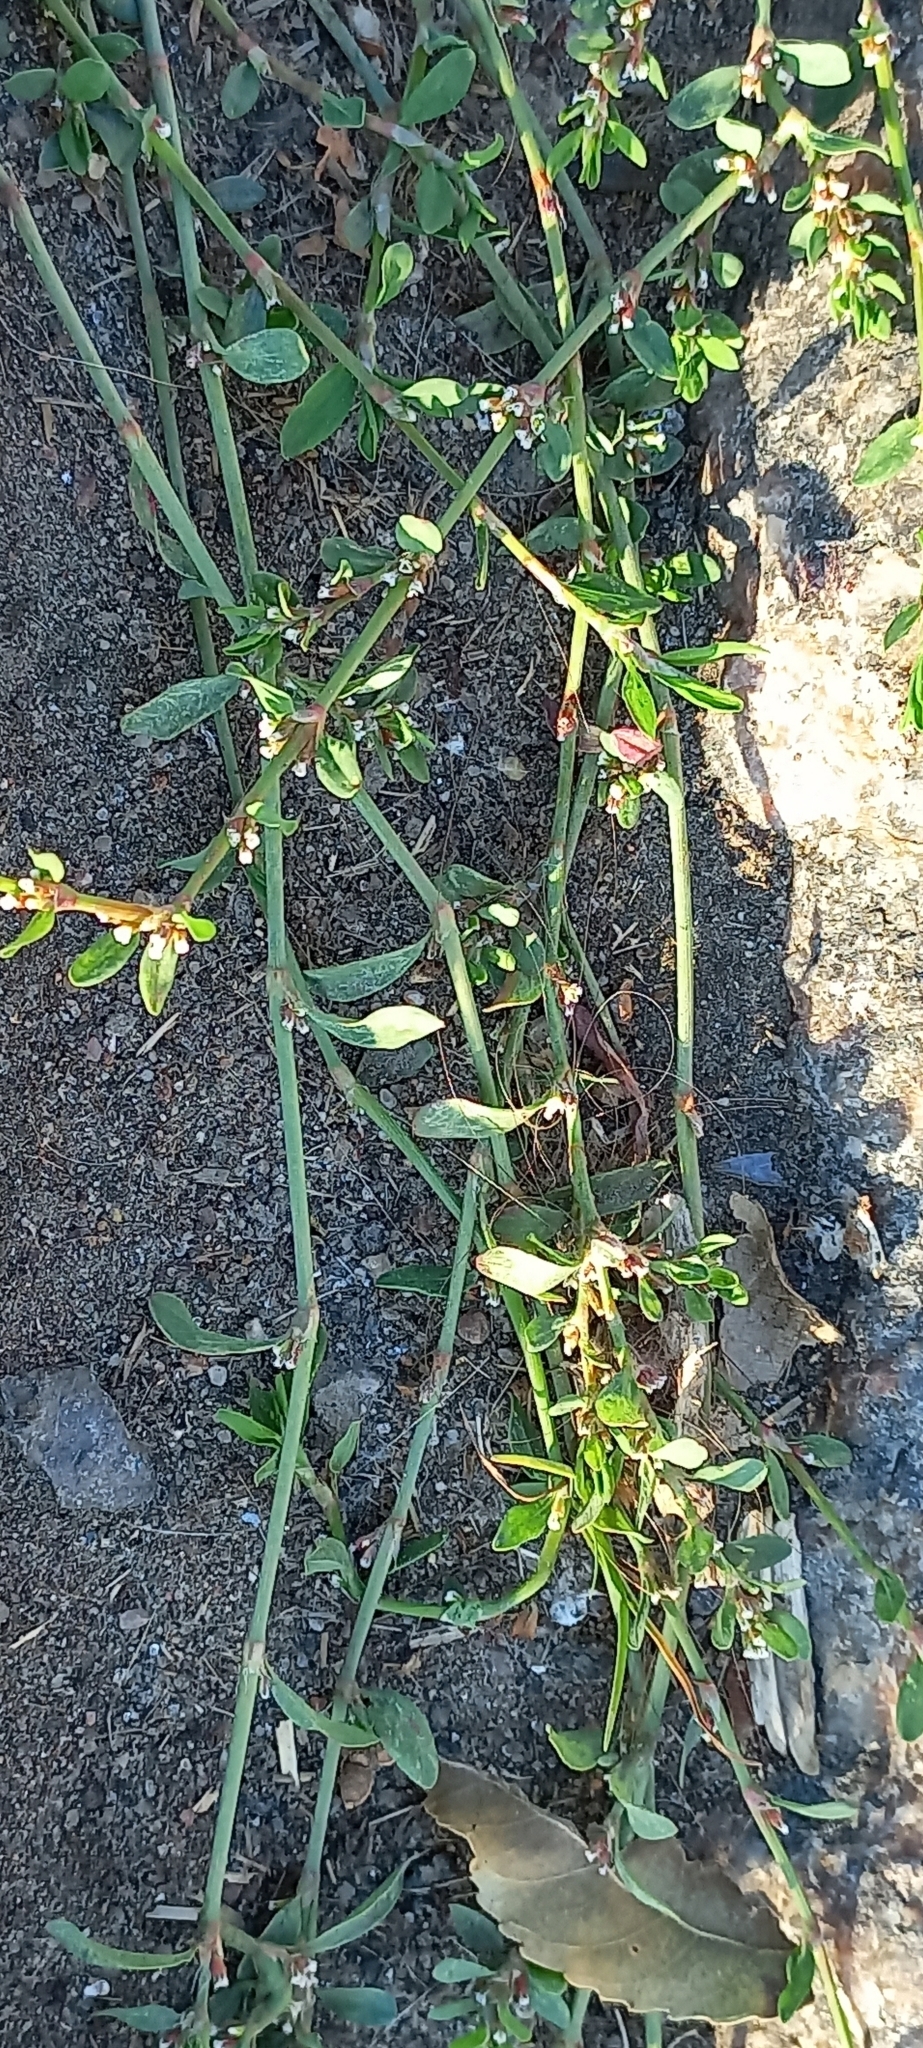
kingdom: Plantae
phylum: Tracheophyta
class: Magnoliopsida
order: Caryophyllales
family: Polygonaceae
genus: Polygonum
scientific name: Polygonum
